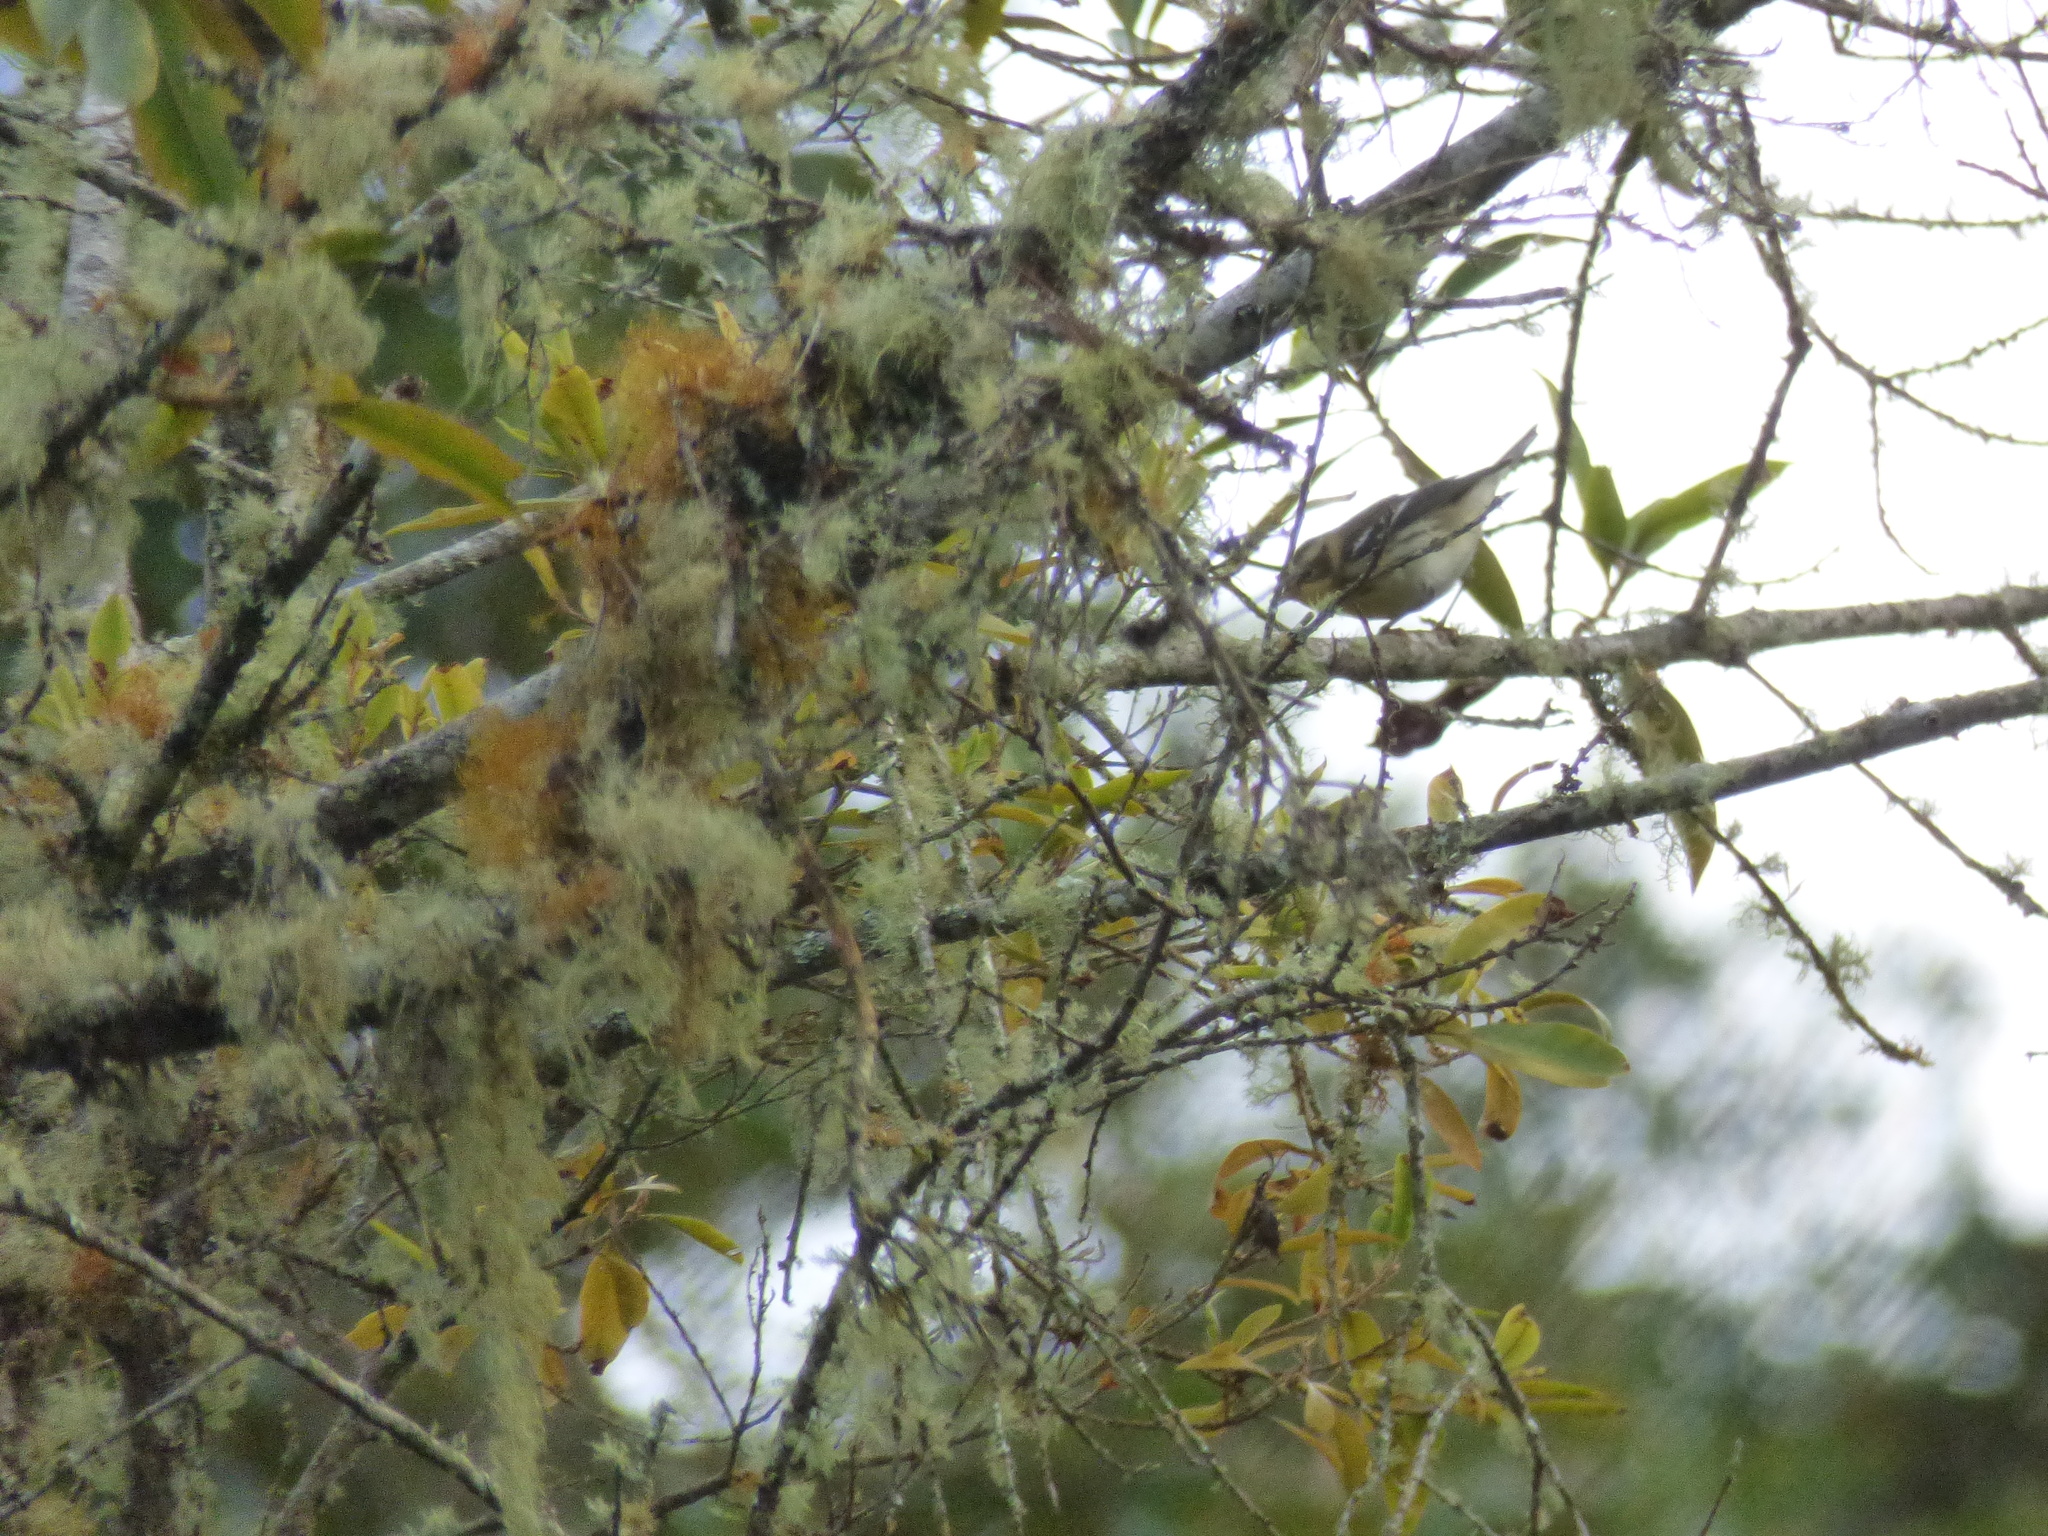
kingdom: Animalia
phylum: Chordata
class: Aves
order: Passeriformes
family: Parulidae
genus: Setophaga
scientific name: Setophaga fusca
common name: Blackburnian warbler
